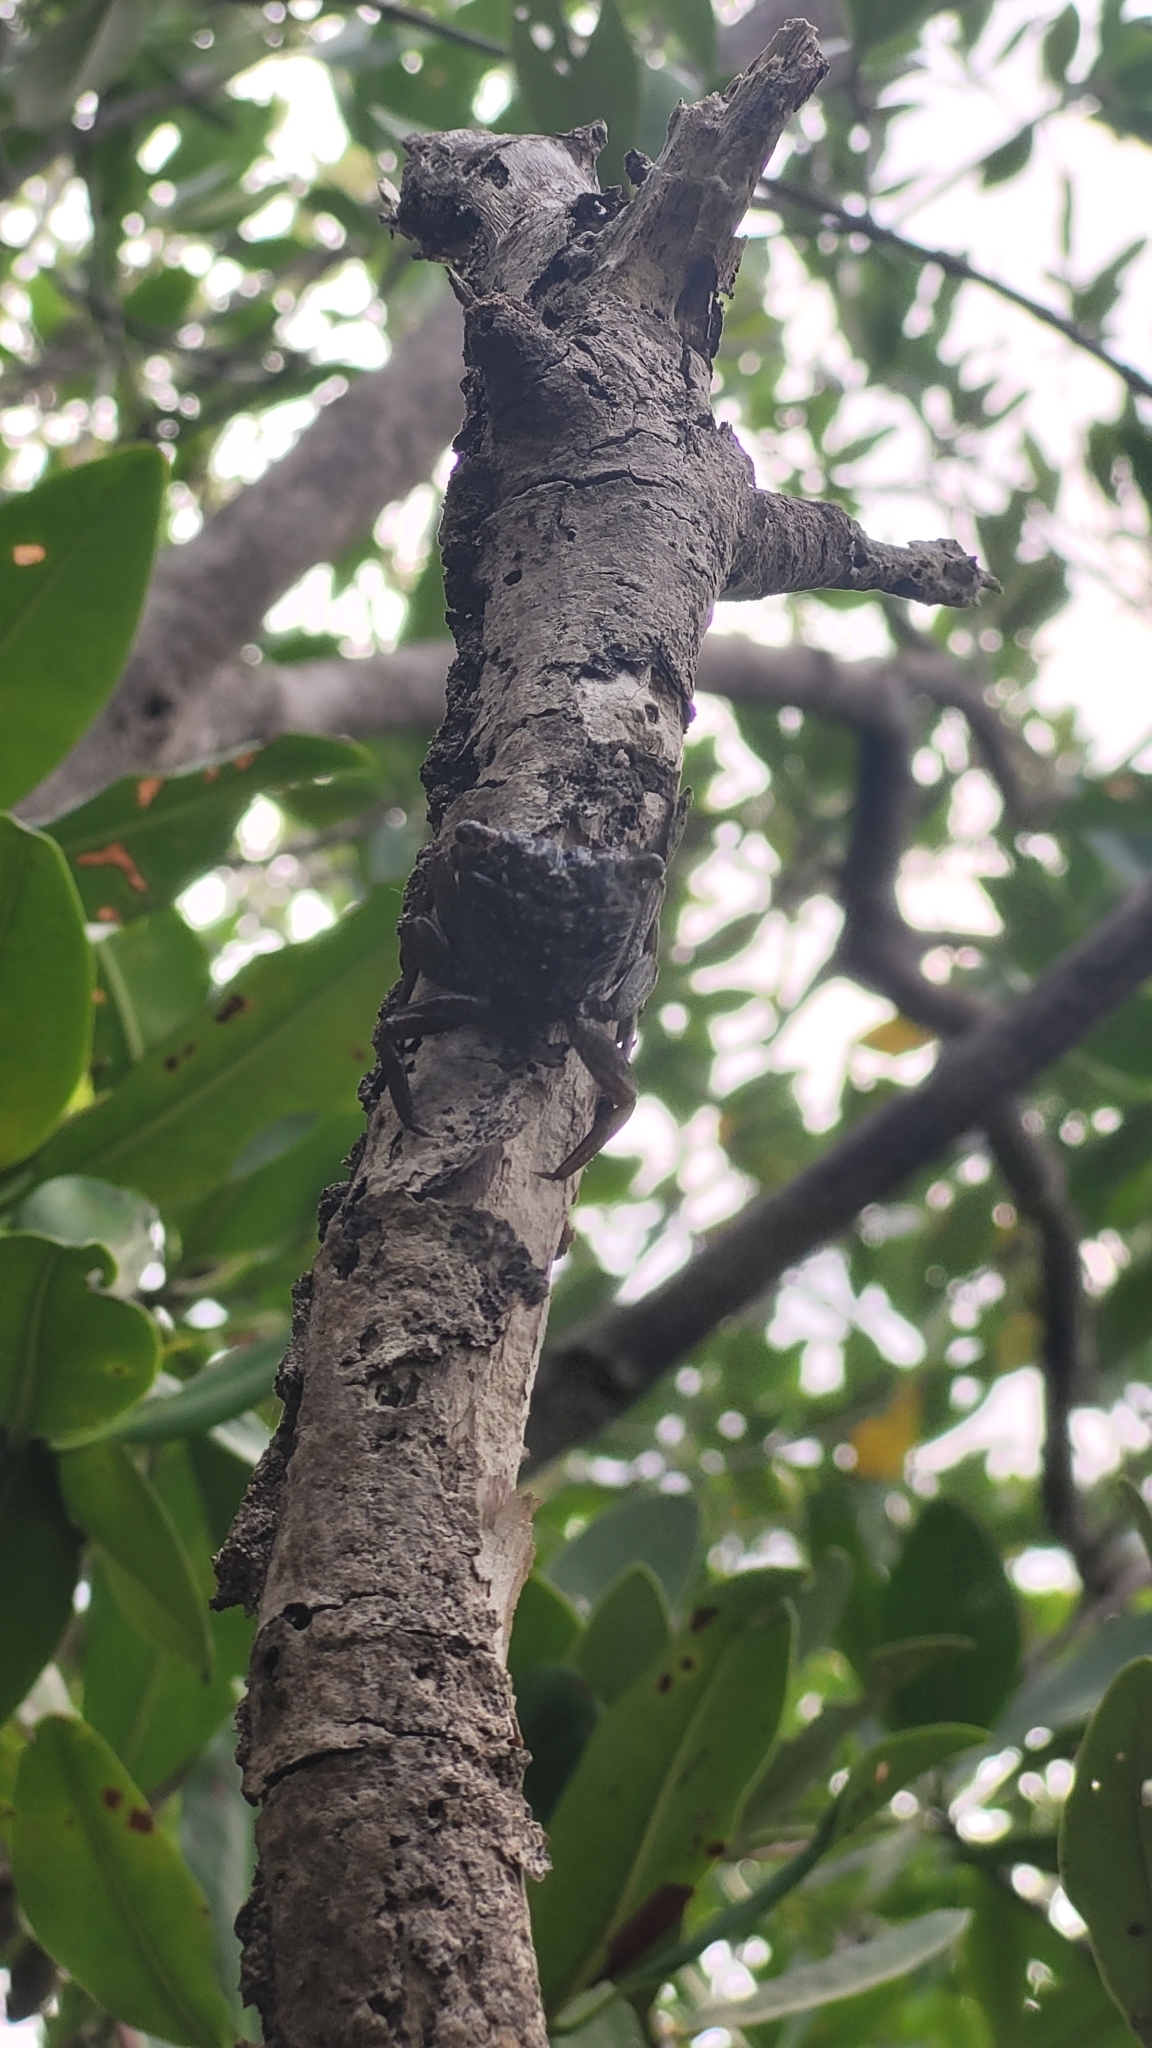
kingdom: Animalia
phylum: Arthropoda
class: Malacostraca
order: Decapoda
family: Sesarmidae
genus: Aratus
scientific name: Aratus pisonii
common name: Mangrove crab
